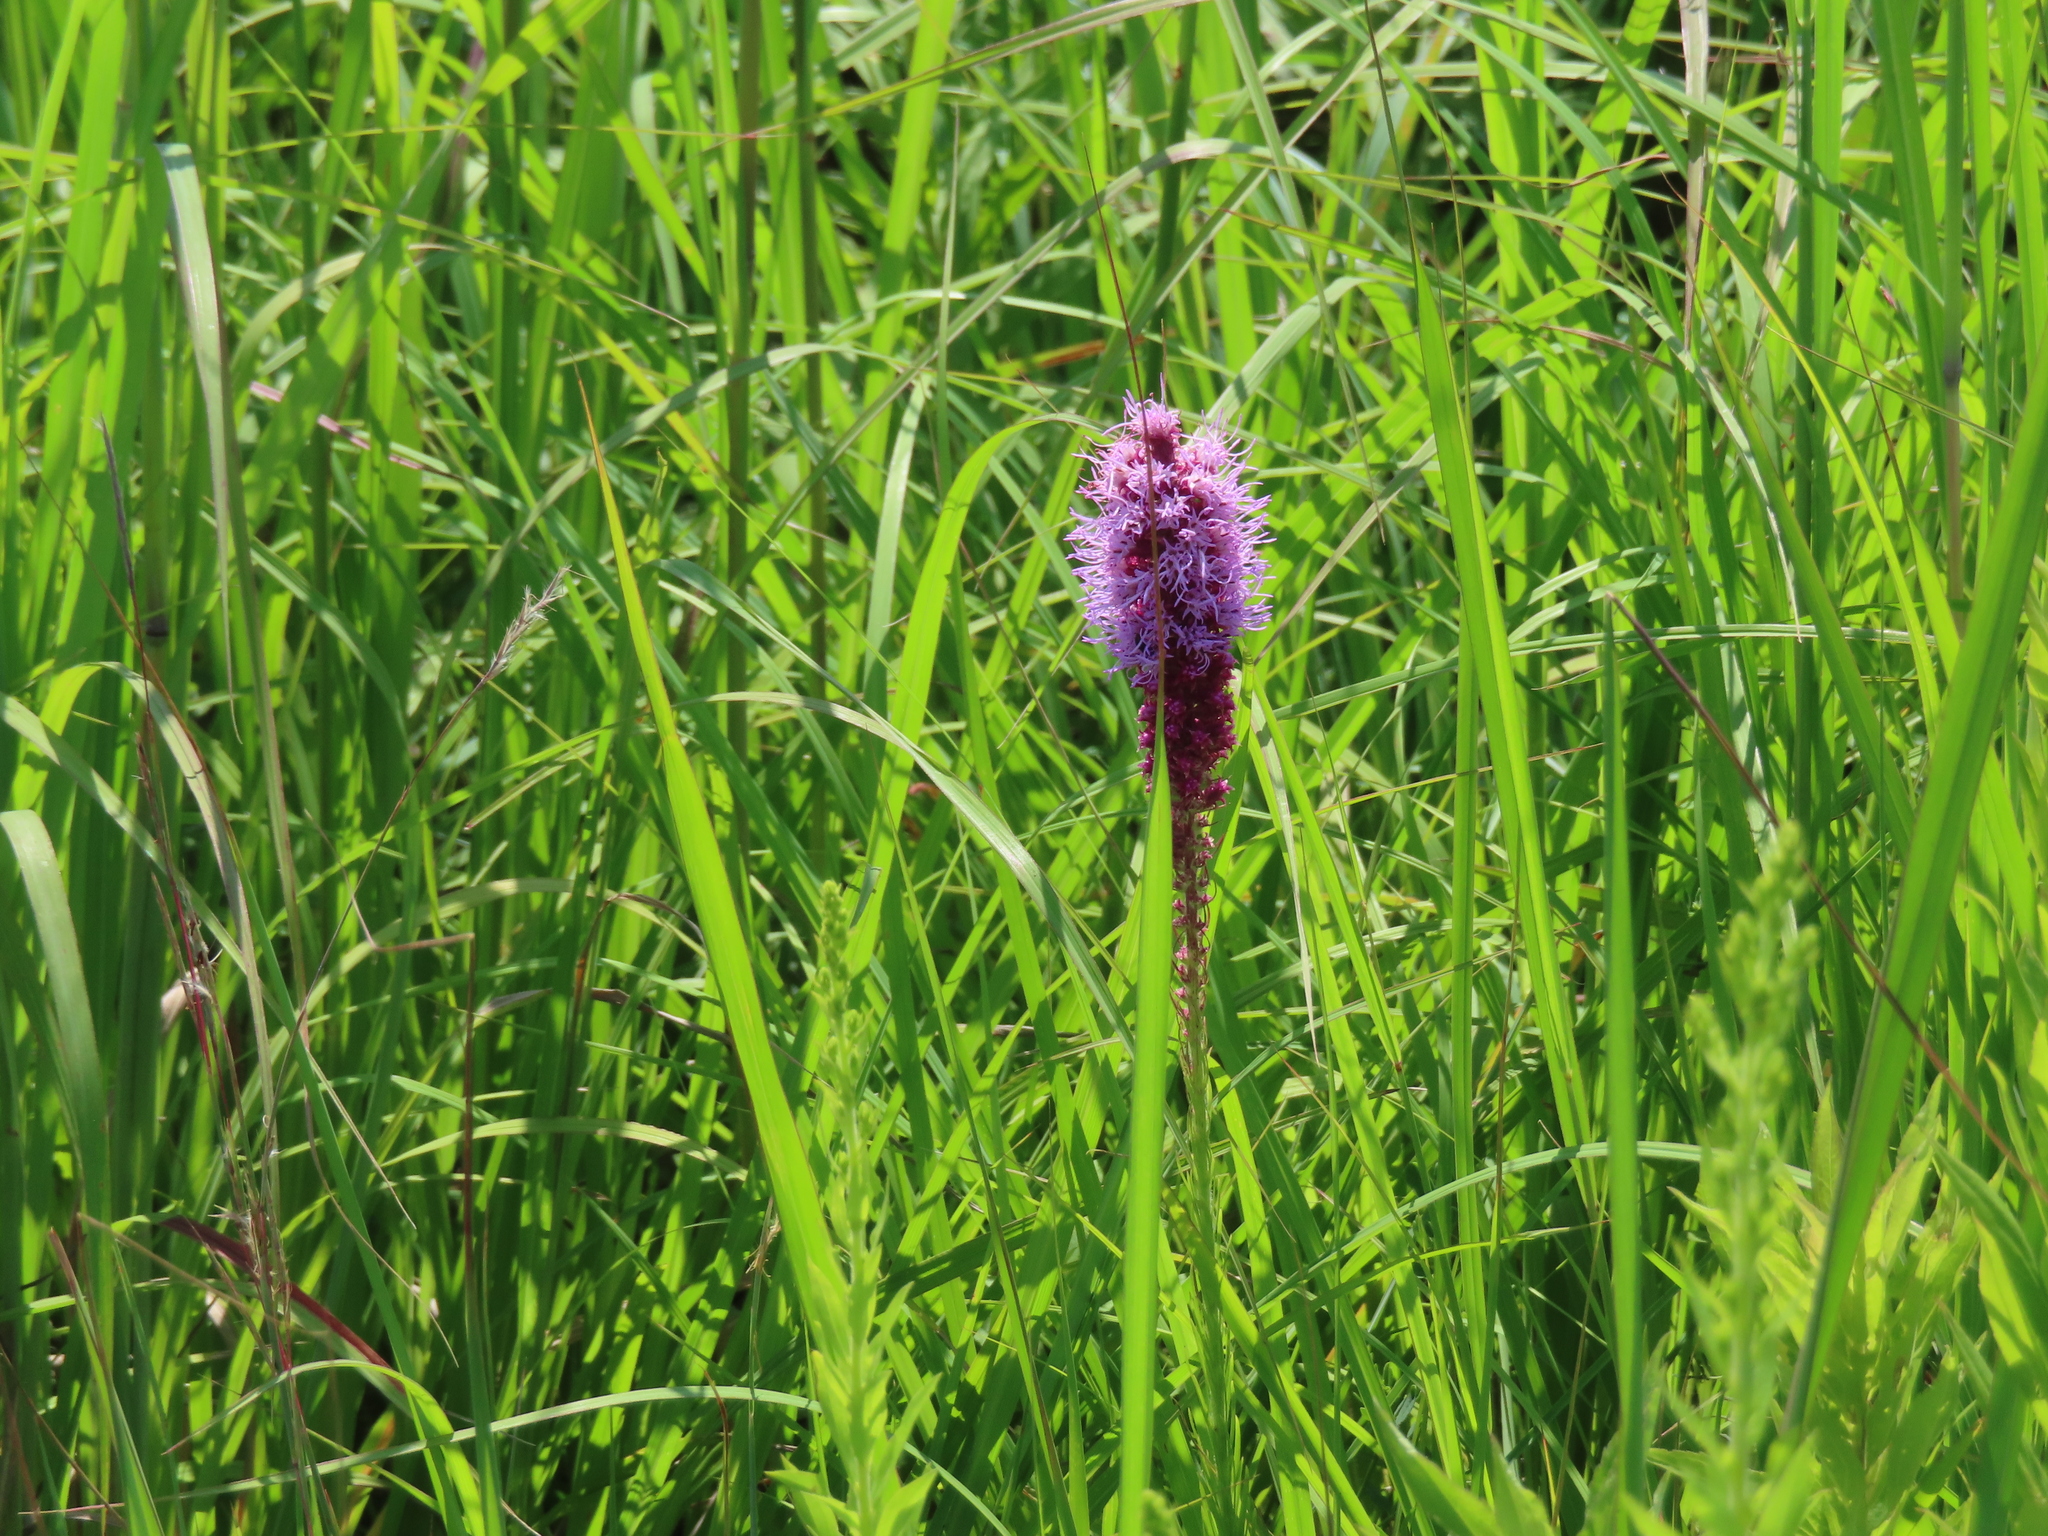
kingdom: Plantae
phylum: Tracheophyta
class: Magnoliopsida
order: Asterales
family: Asteraceae
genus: Liatris
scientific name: Liatris pycnostachya
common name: Cattail gayfeather
